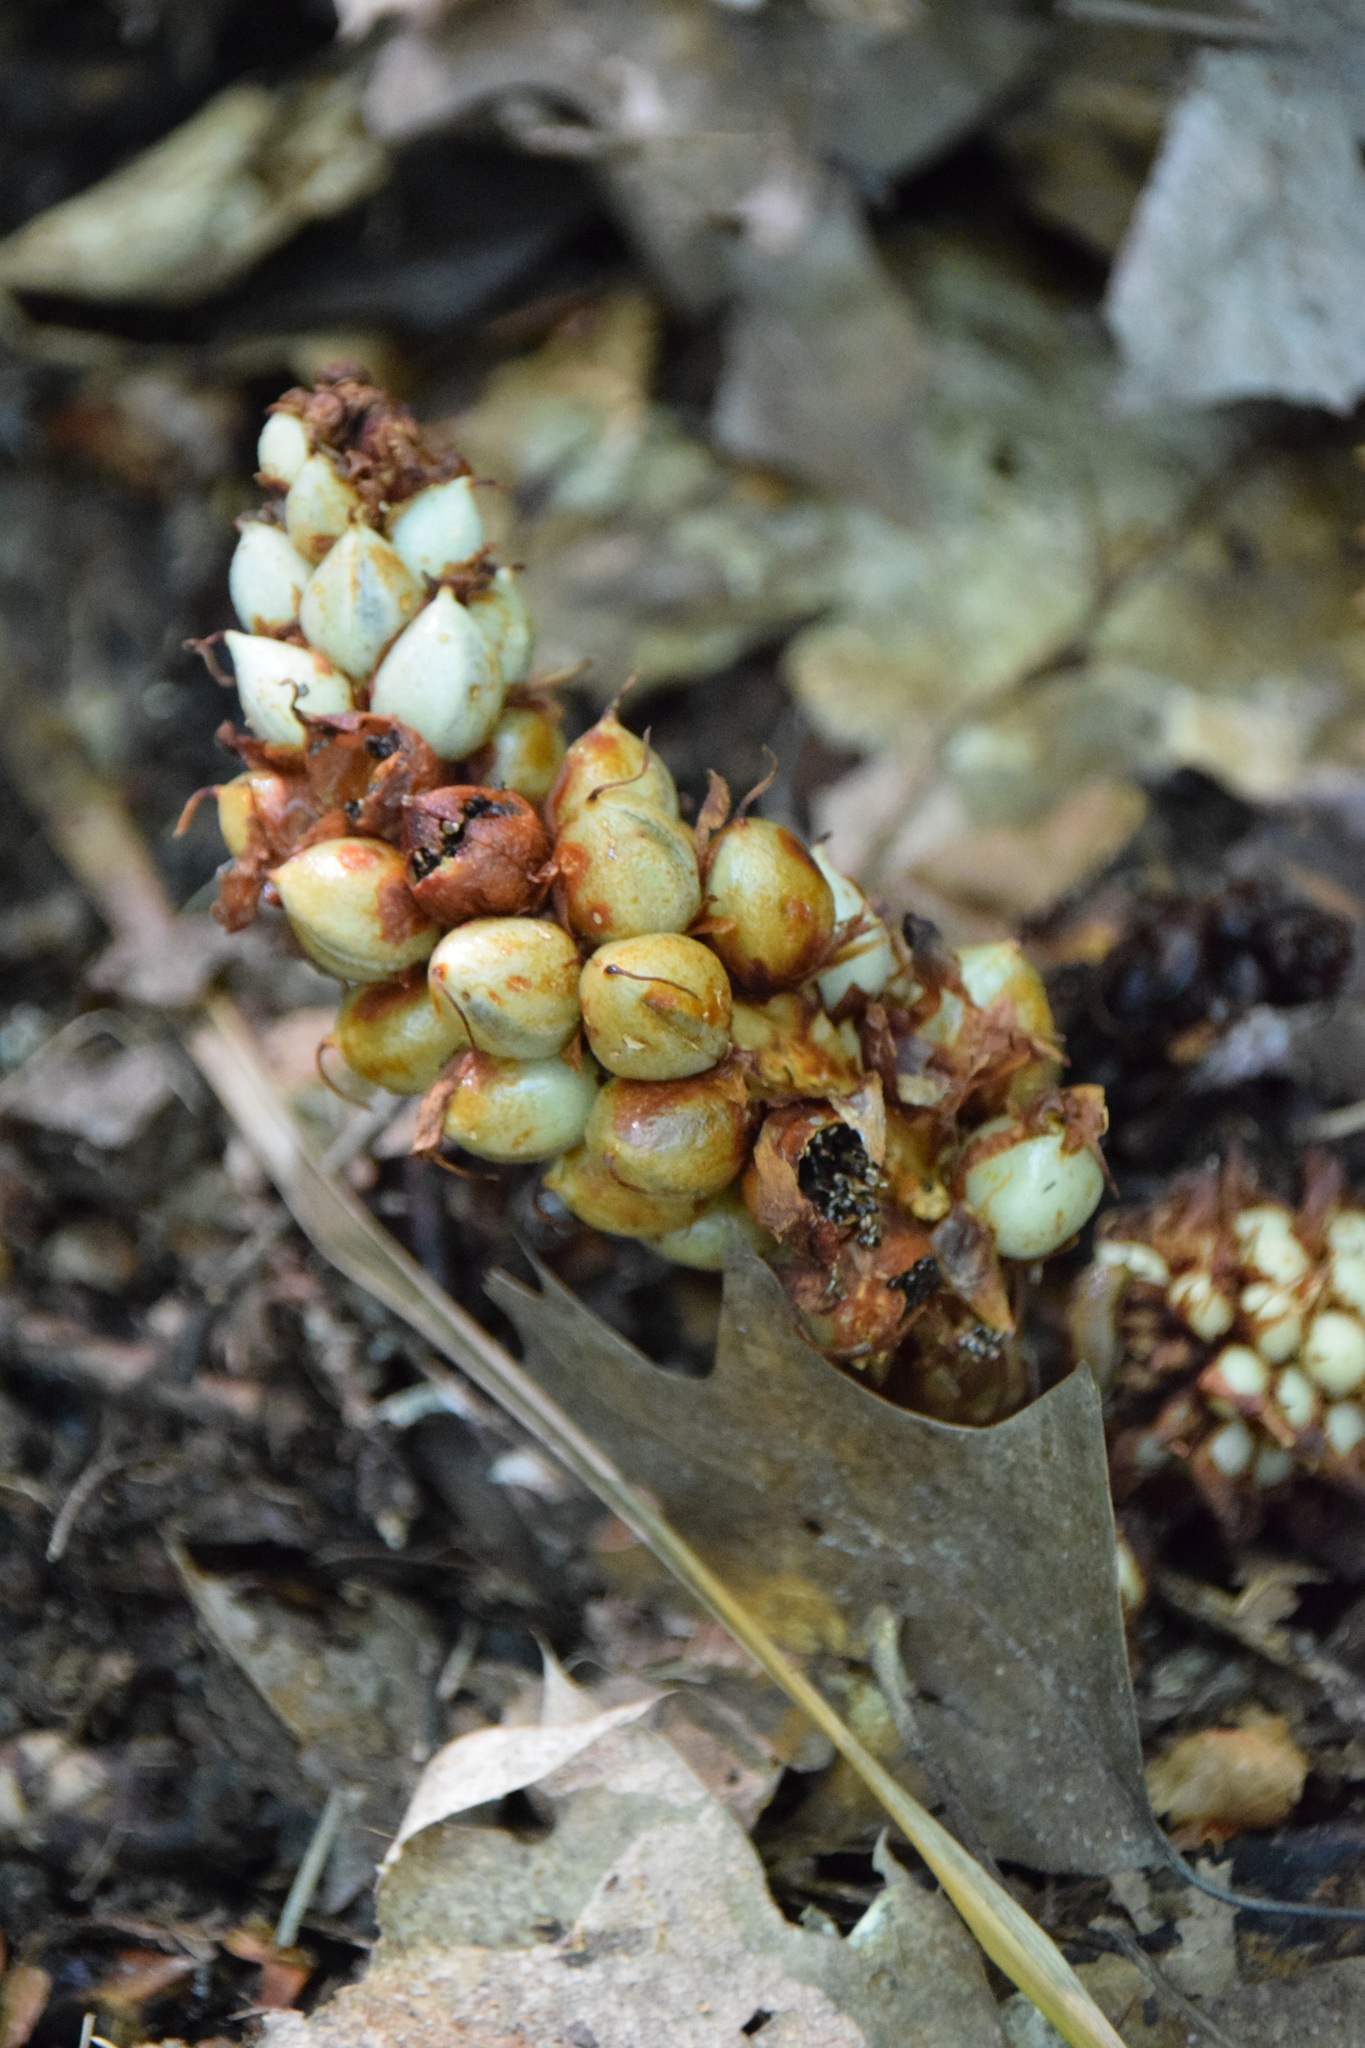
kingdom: Plantae
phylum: Tracheophyta
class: Magnoliopsida
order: Lamiales
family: Orobanchaceae
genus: Conopholis
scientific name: Conopholis americana
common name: American cancer-root
